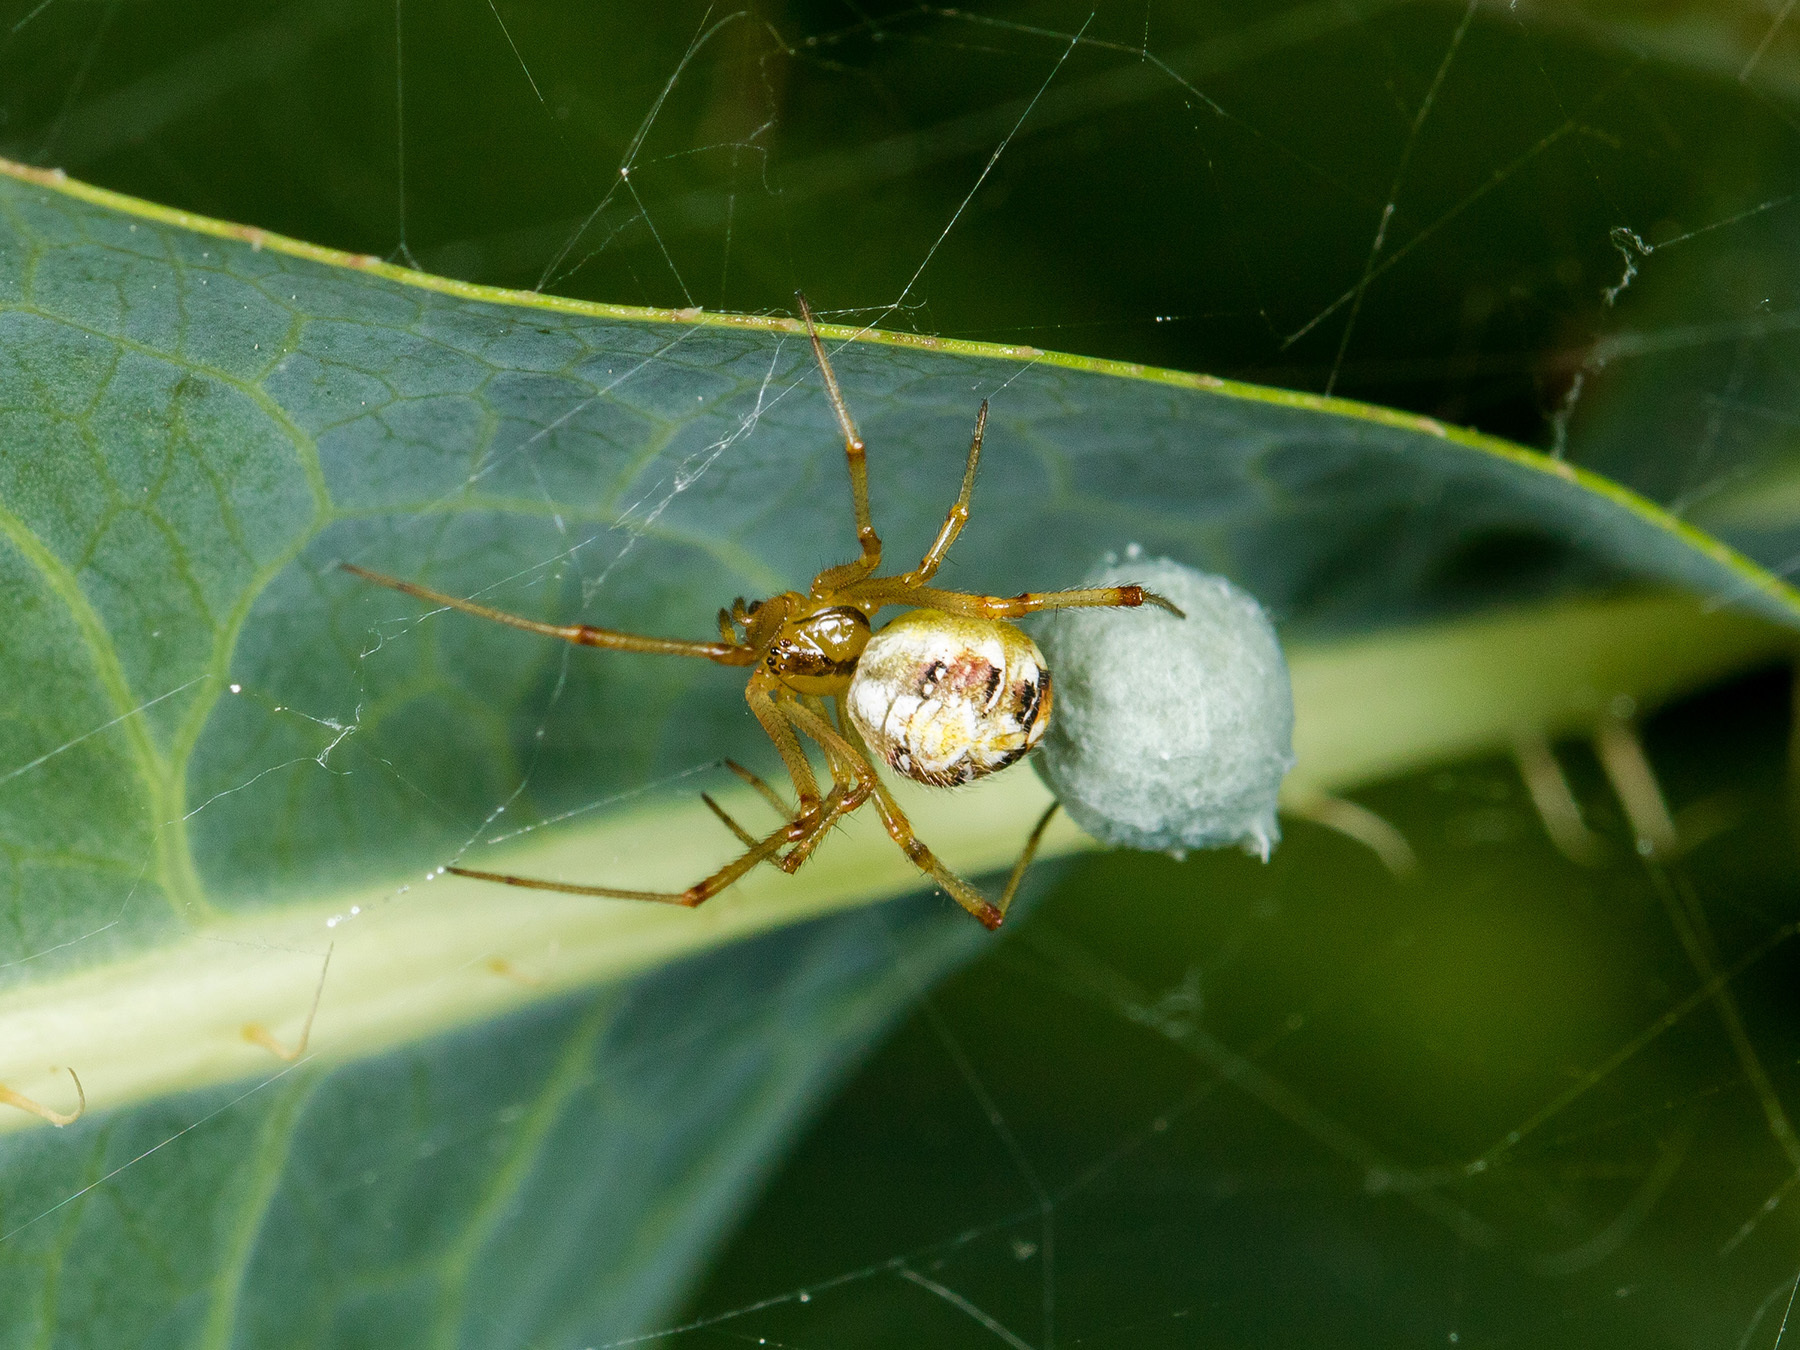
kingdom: Animalia
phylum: Arthropoda
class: Arachnida
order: Araneae
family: Theridiidae
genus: Phylloneta
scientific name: Phylloneta impressa
